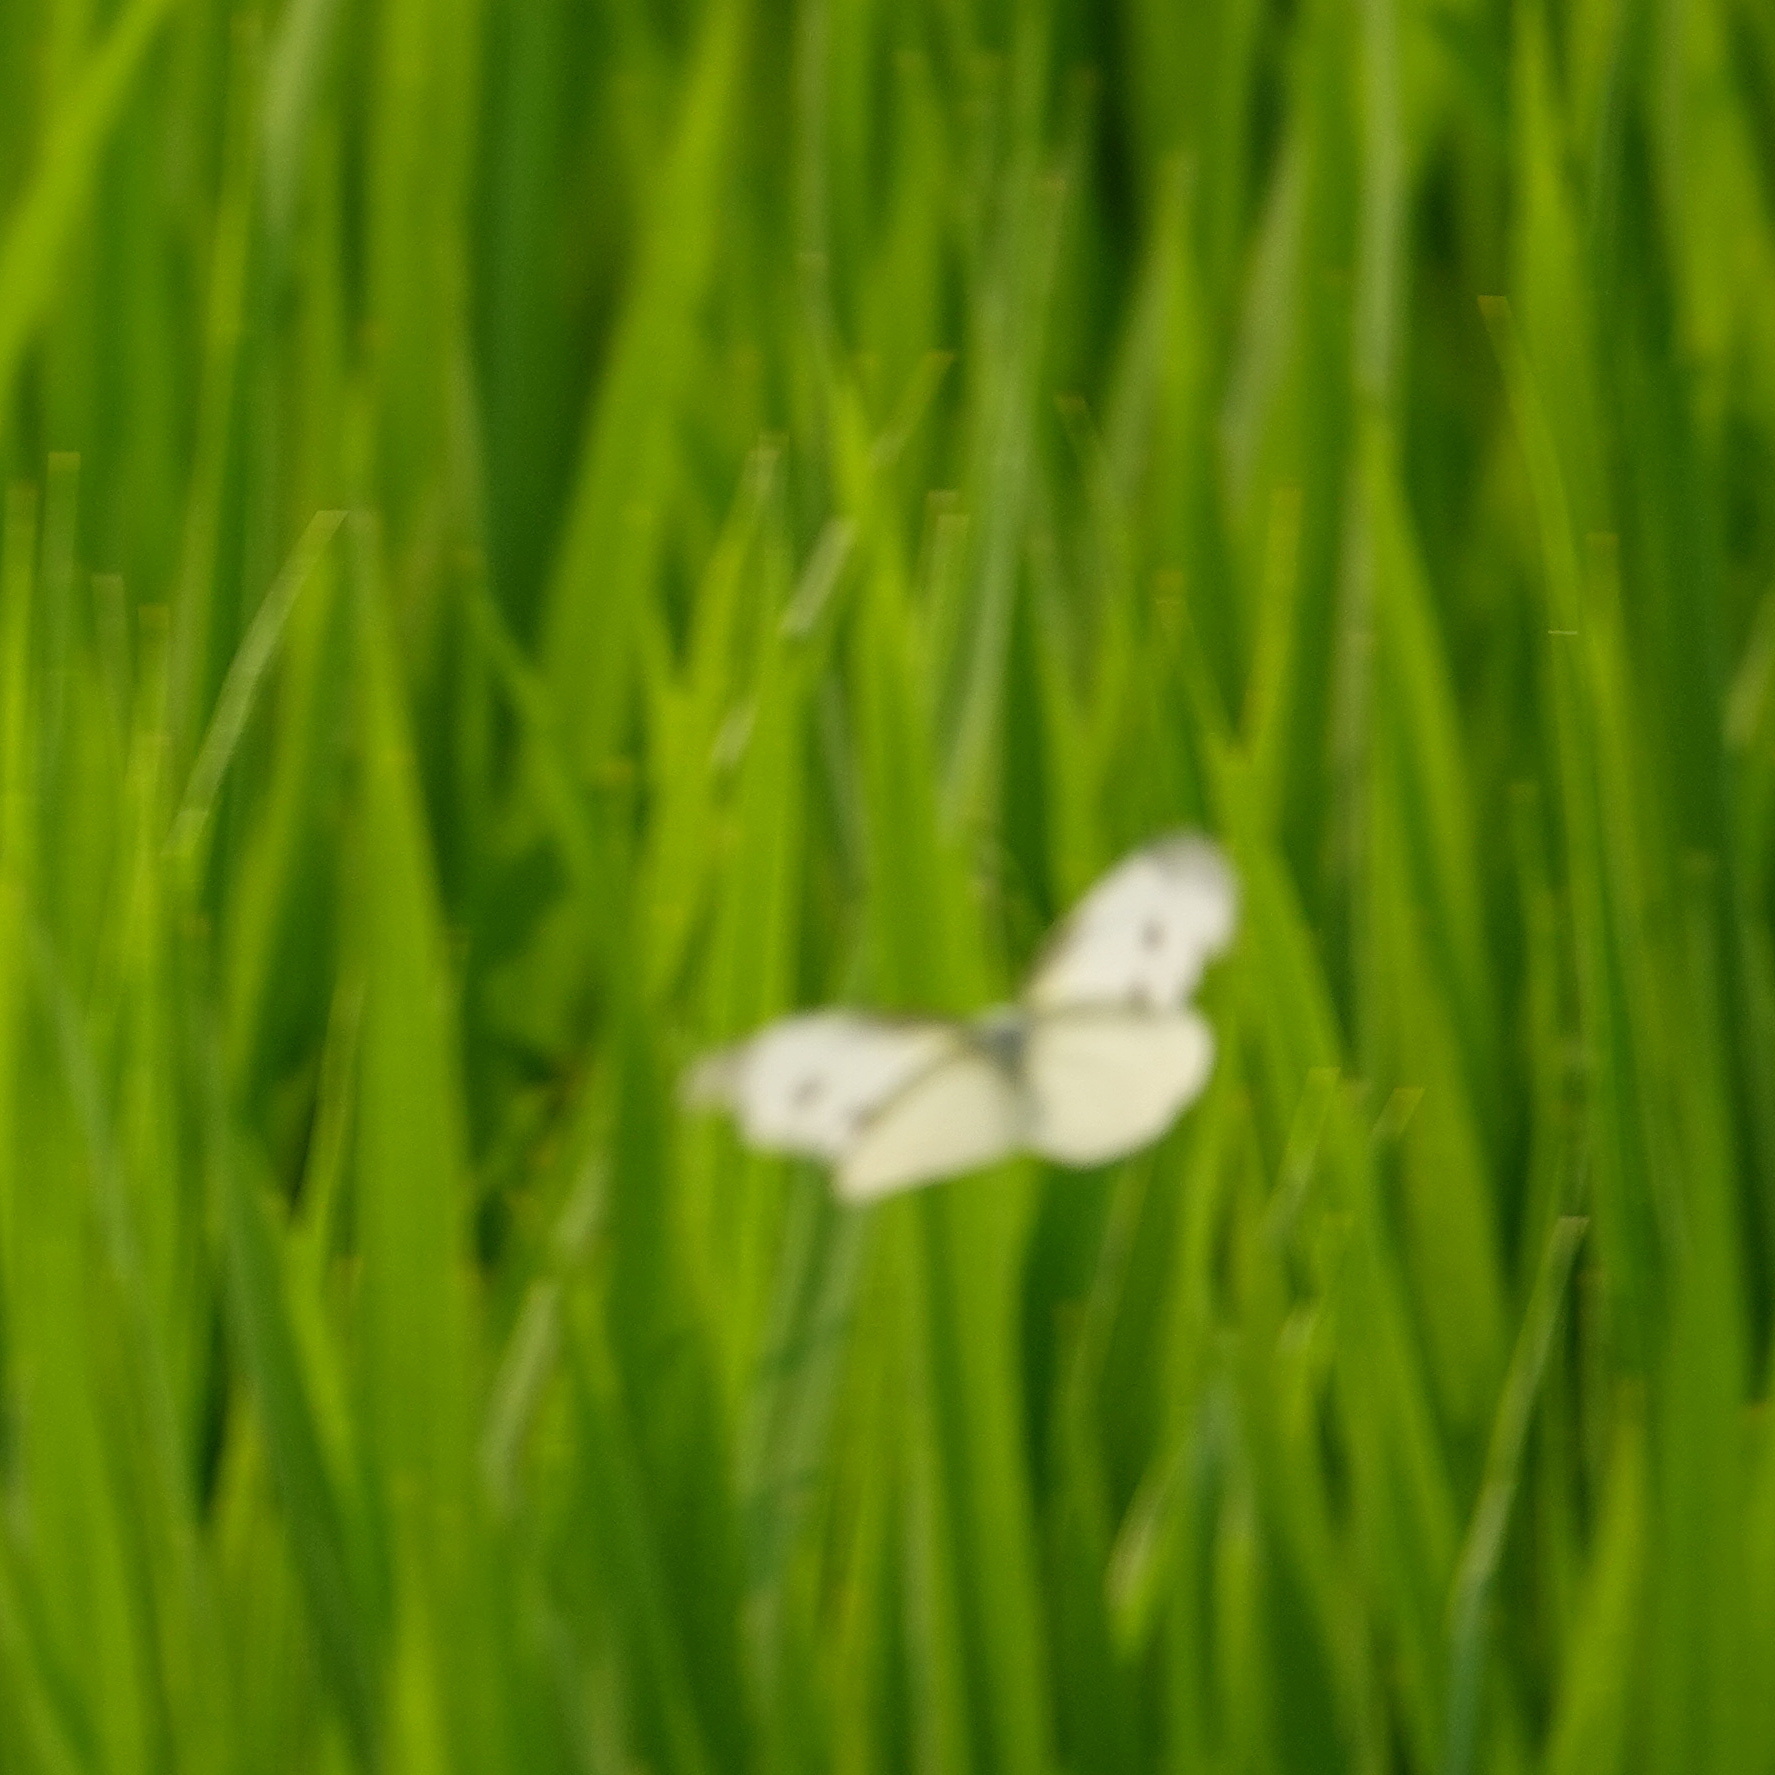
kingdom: Animalia
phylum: Arthropoda
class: Insecta
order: Lepidoptera
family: Pieridae
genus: Pieris
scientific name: Pieris rapae
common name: Small white
